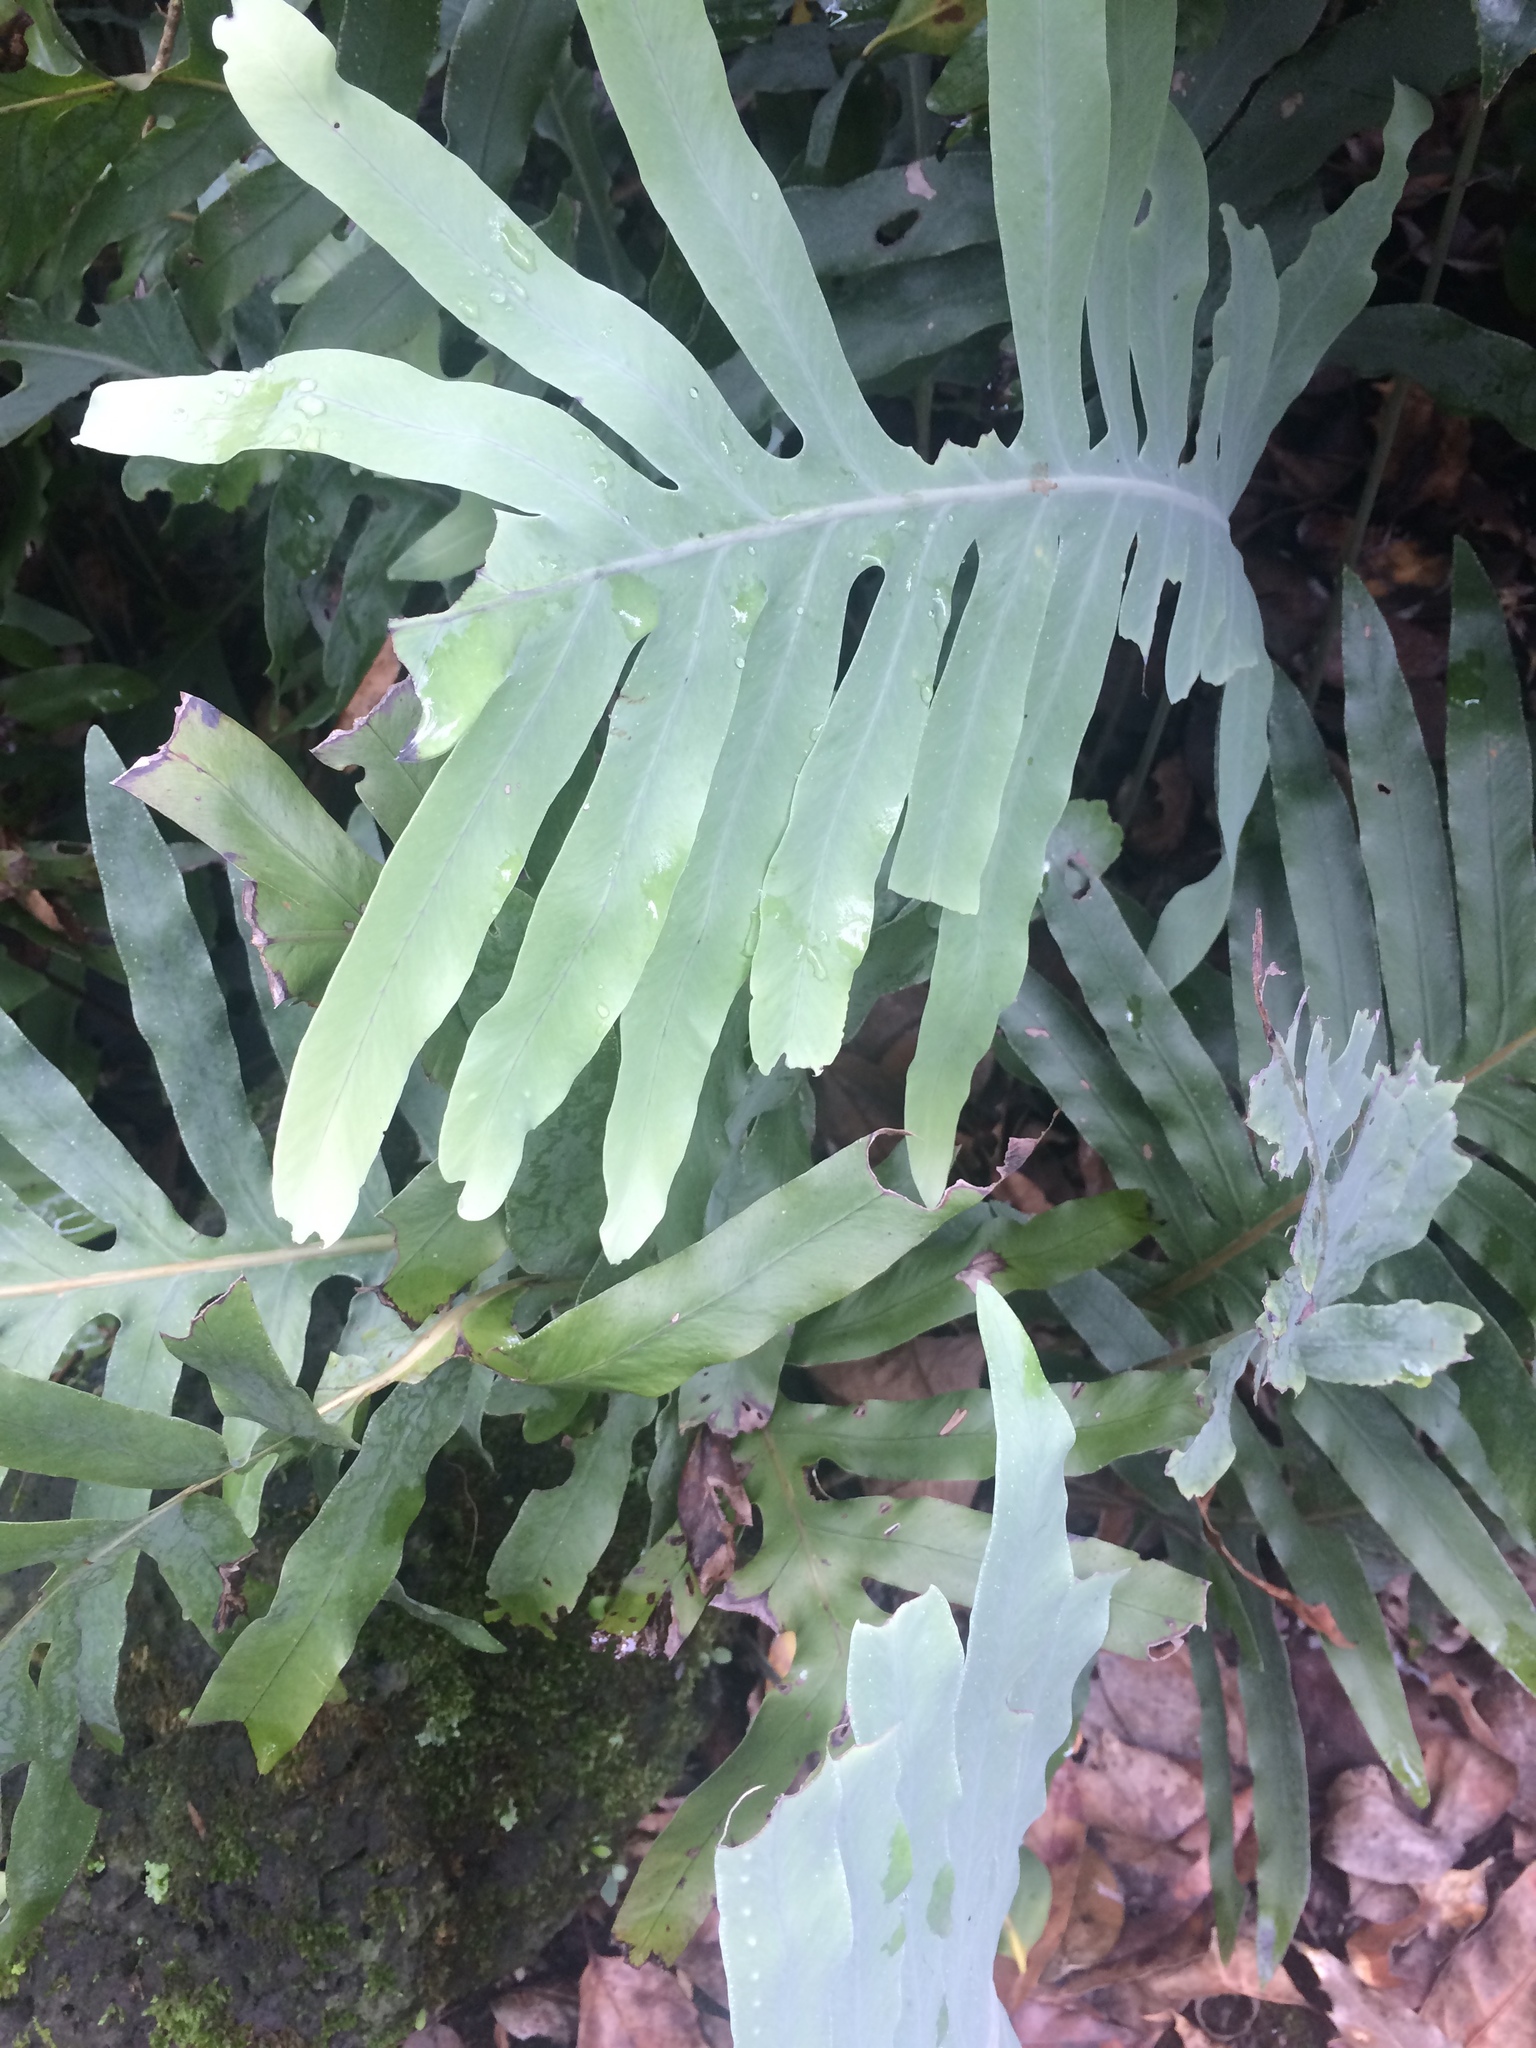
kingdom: Plantae
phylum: Tracheophyta
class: Polypodiopsida
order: Polypodiales
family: Polypodiaceae
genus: Phlebodium
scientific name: Phlebodium pseudoaureum
